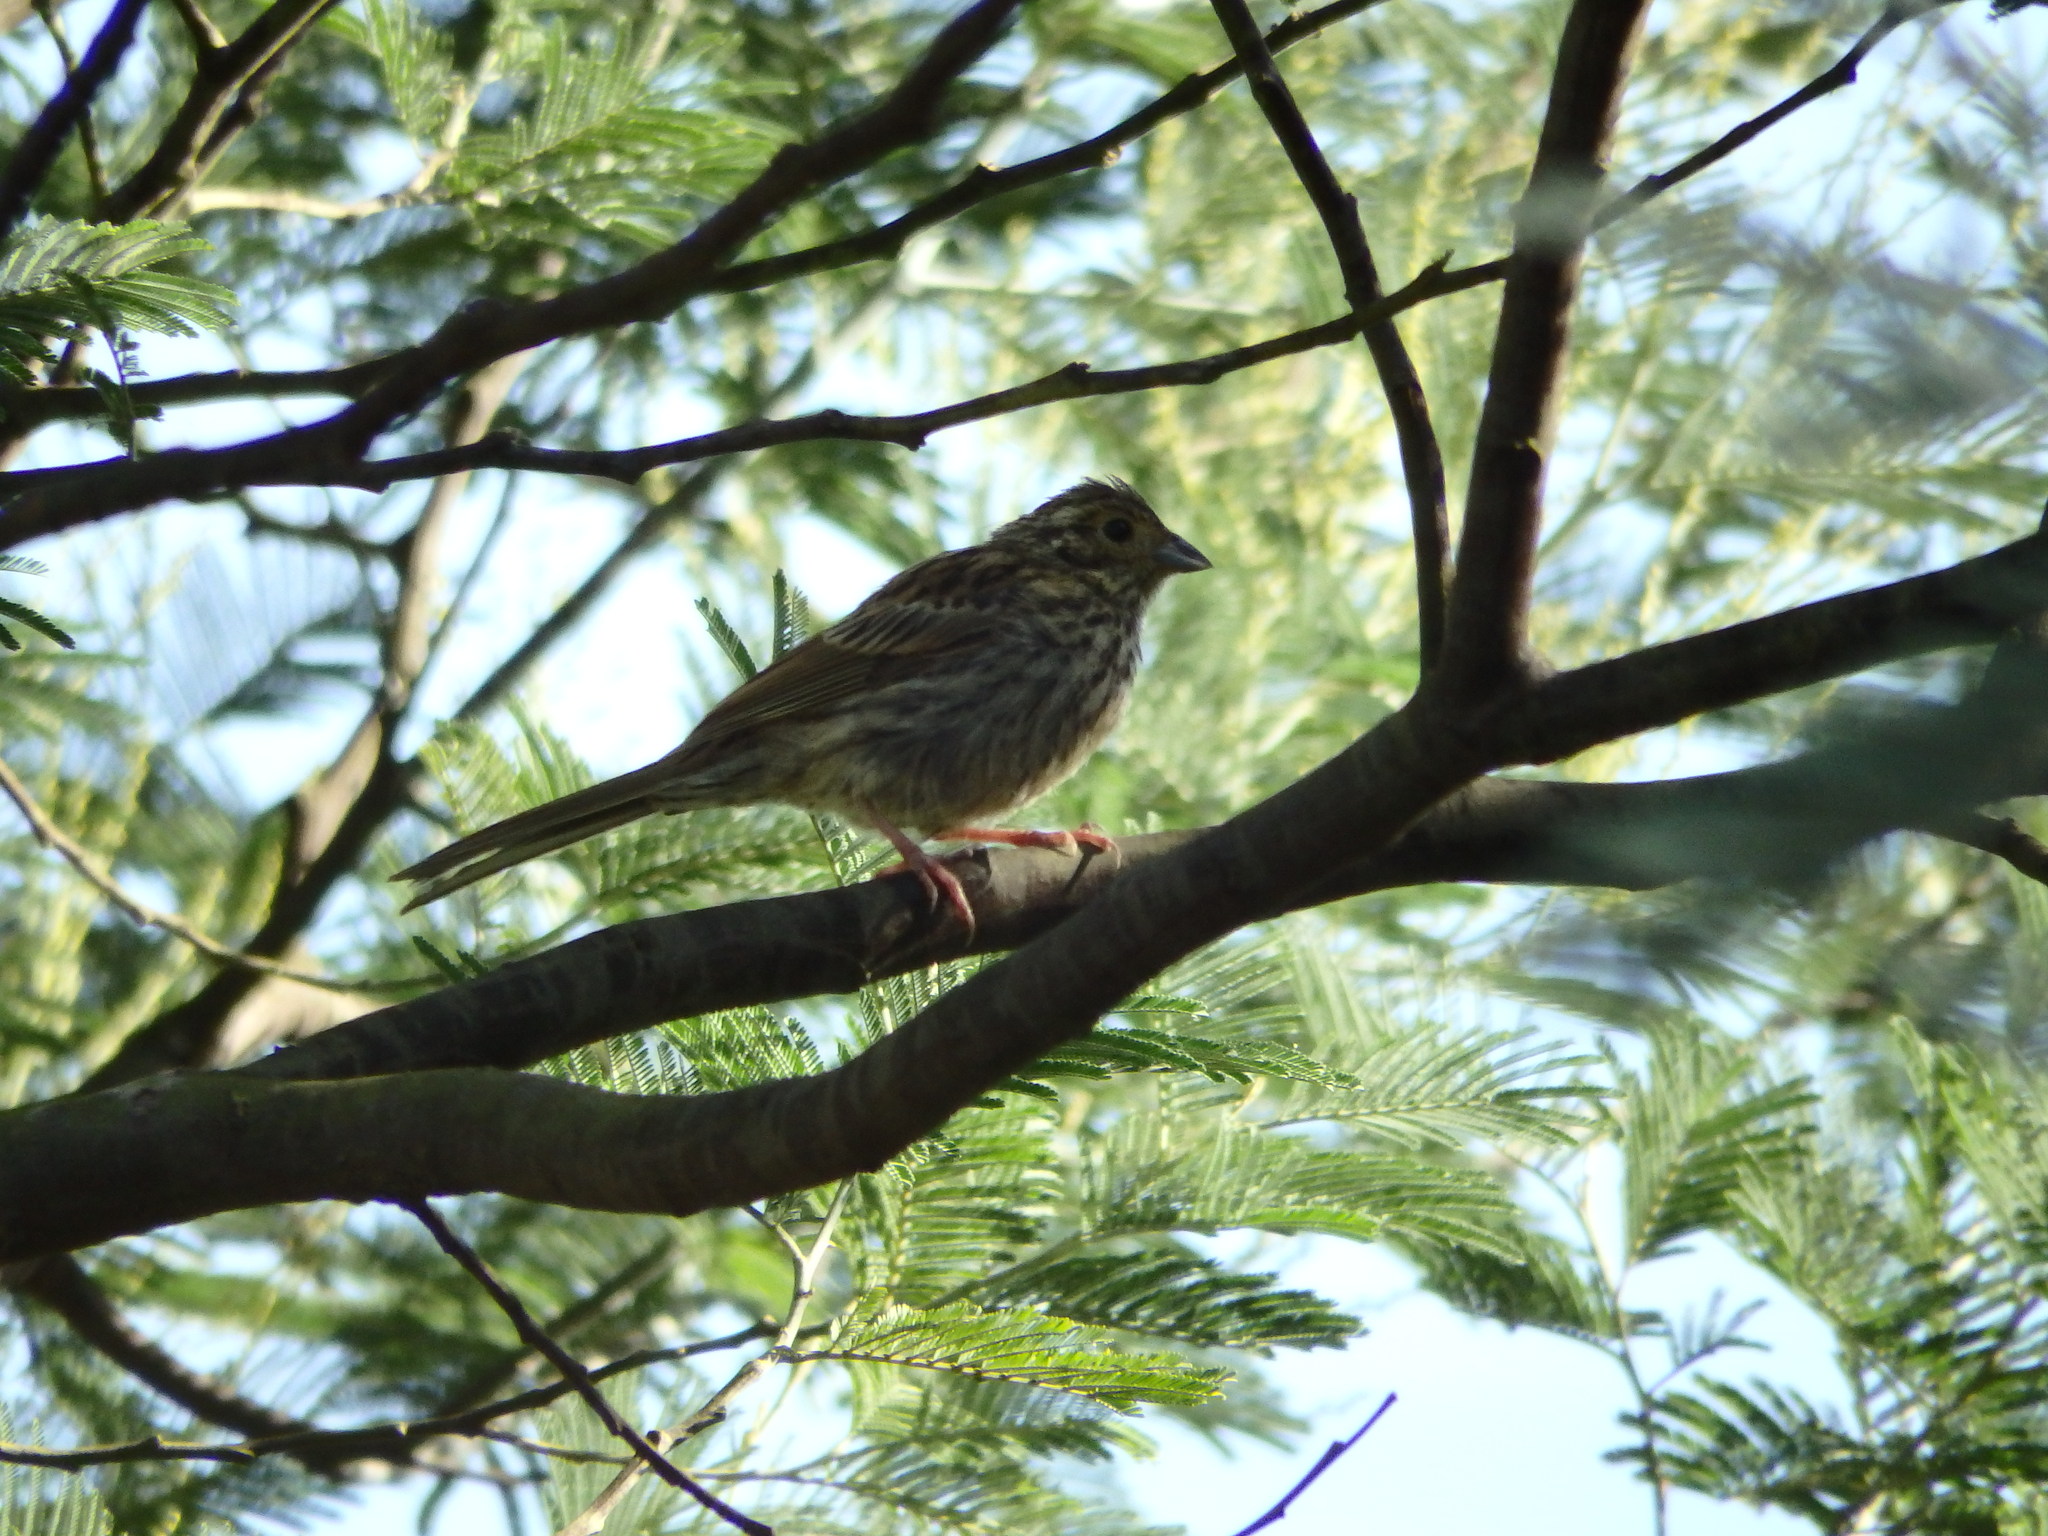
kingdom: Animalia
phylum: Chordata
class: Aves
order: Passeriformes
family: Emberizidae
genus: Emberiza
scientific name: Emberiza cirlus
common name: Cirl bunting
